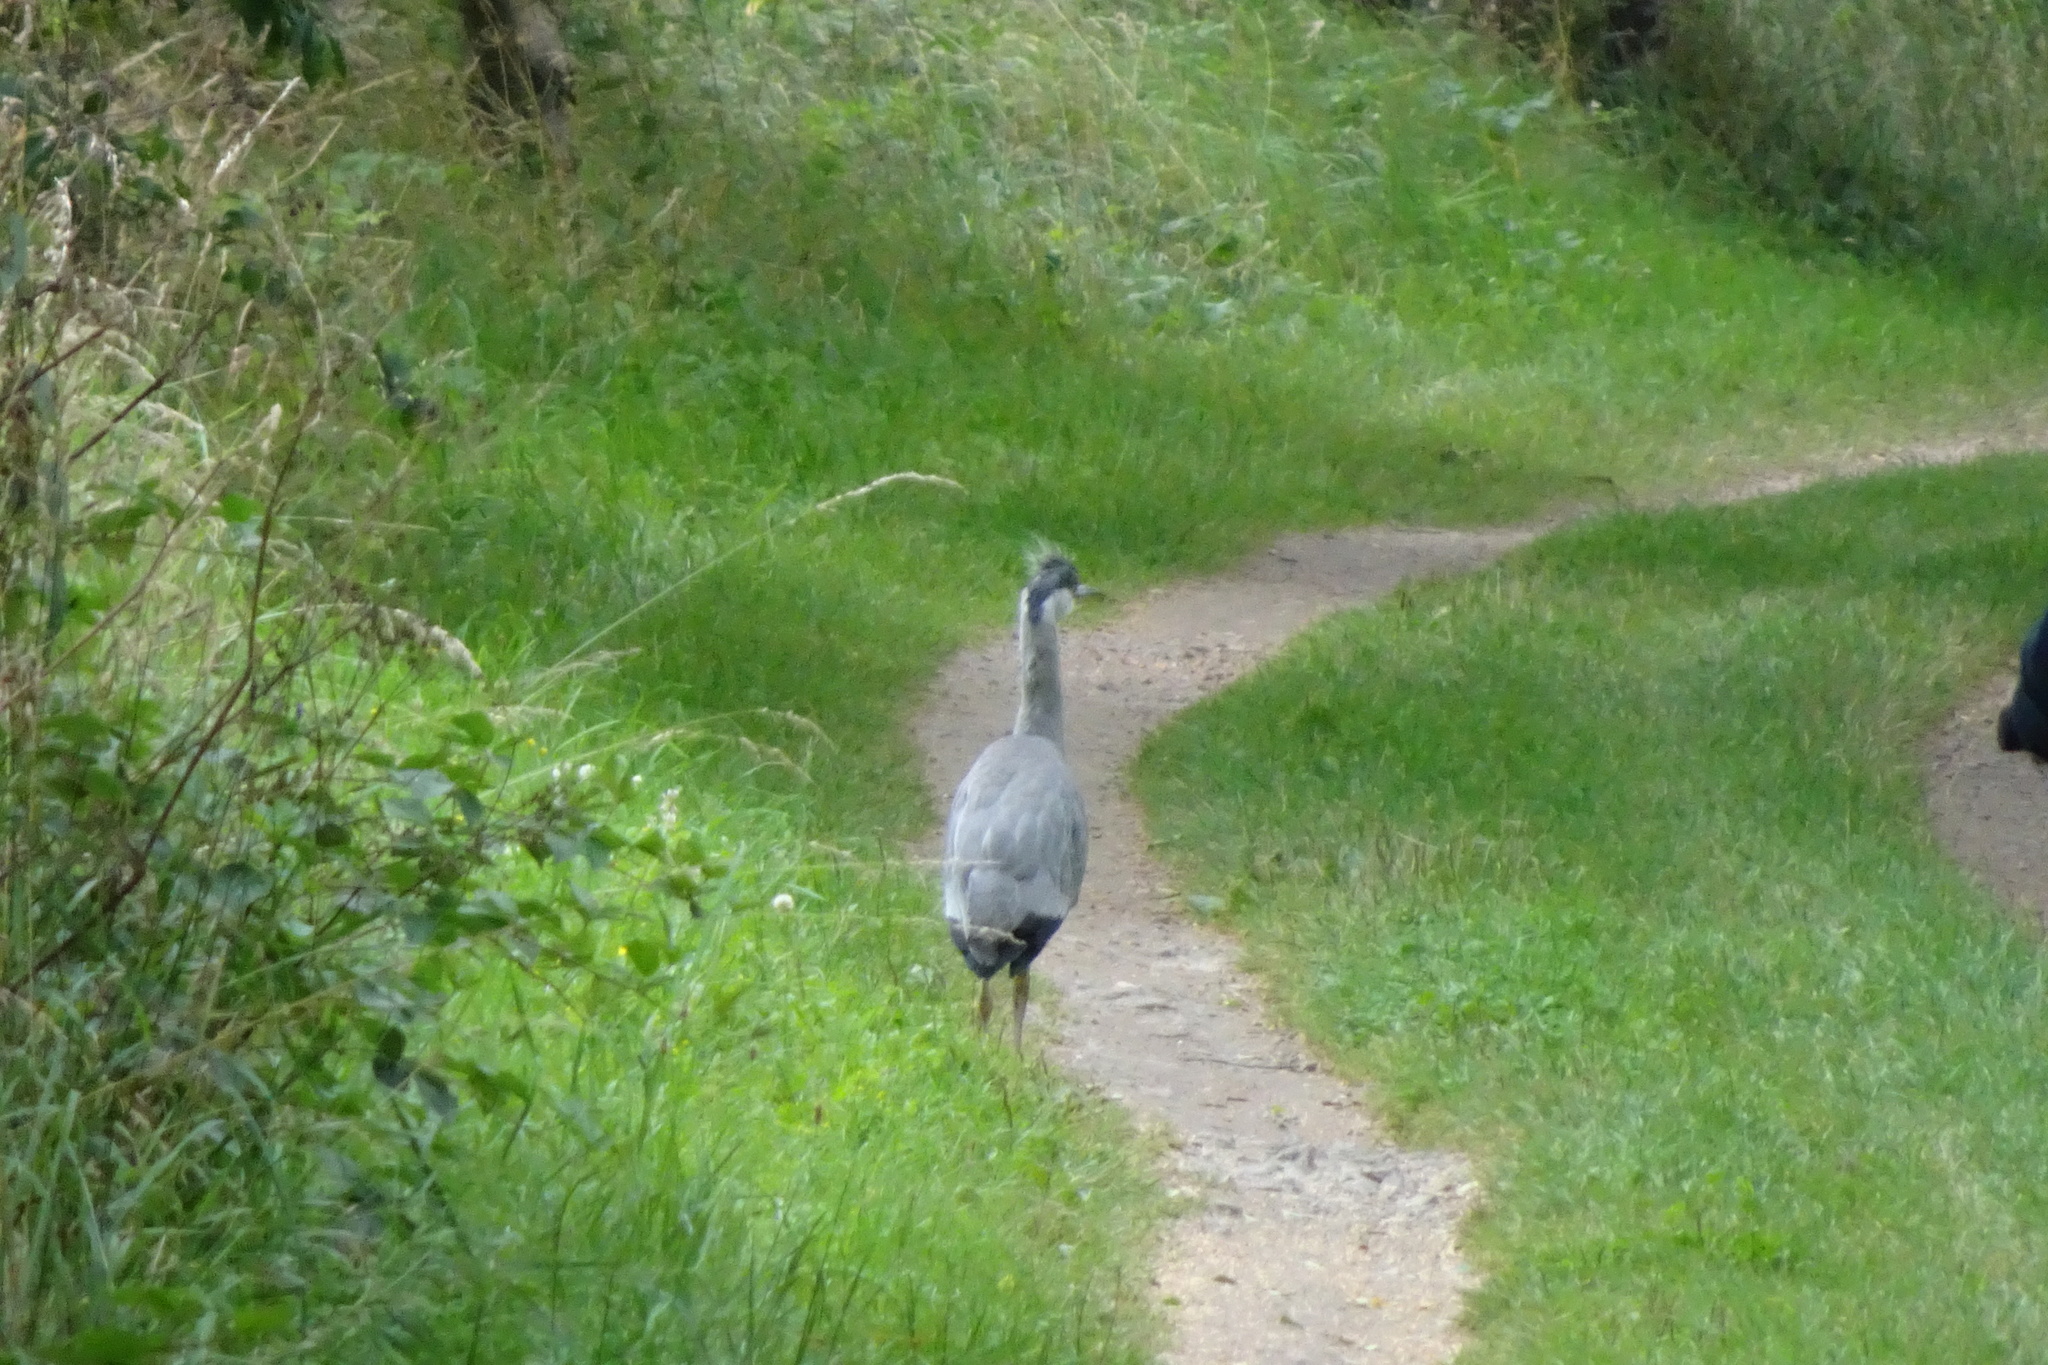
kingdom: Animalia
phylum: Chordata
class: Aves
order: Pelecaniformes
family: Ardeidae
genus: Ardea
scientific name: Ardea cinerea
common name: Grey heron
